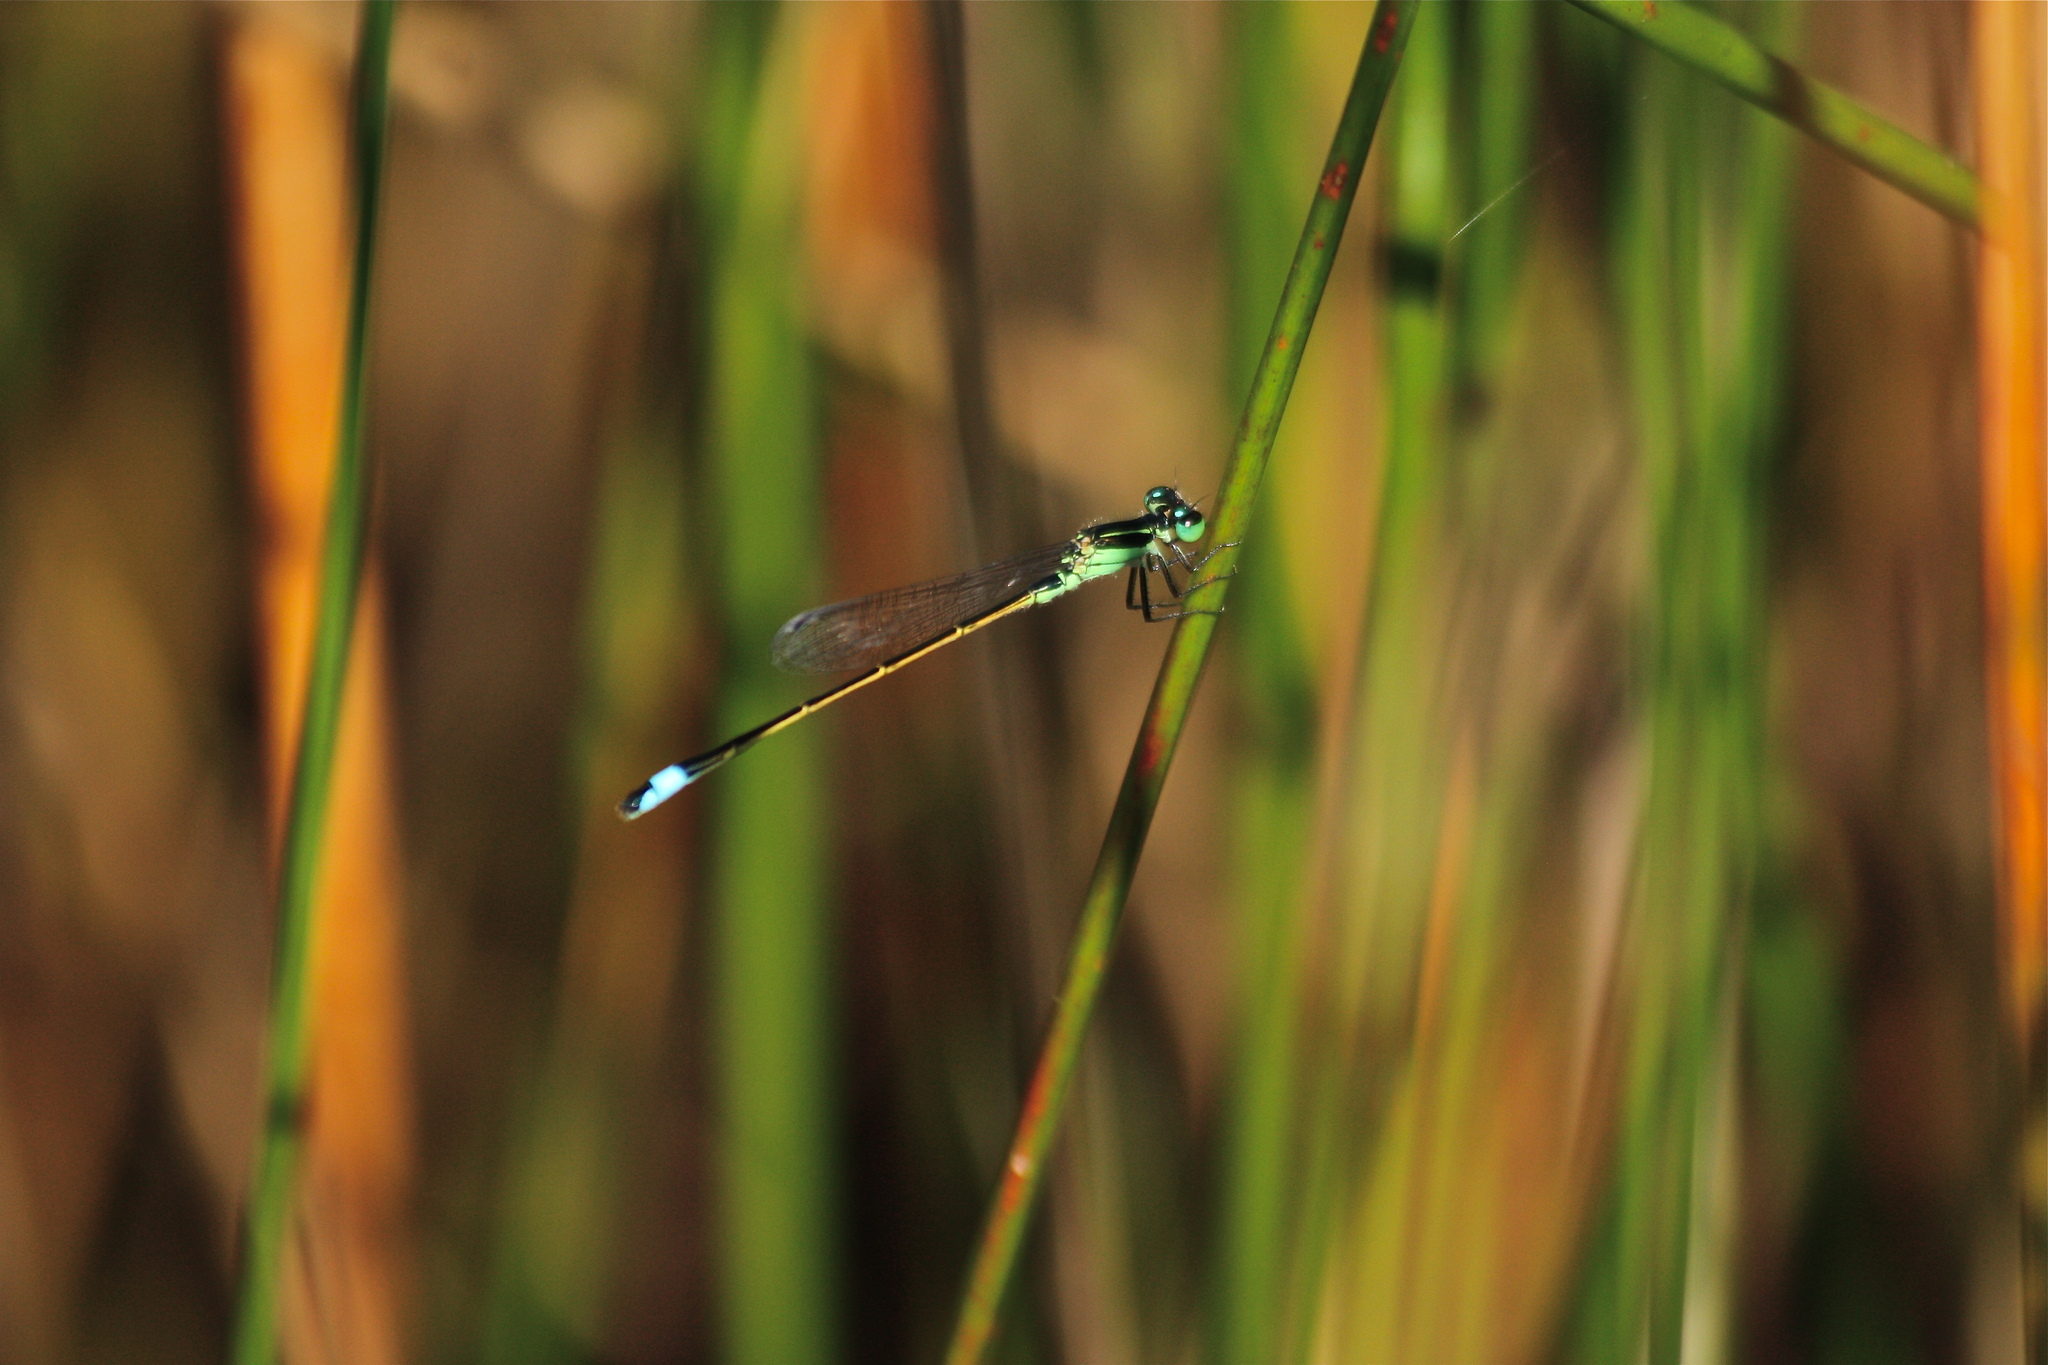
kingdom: Animalia
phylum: Arthropoda
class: Insecta
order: Odonata
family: Coenagrionidae
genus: Ischnura
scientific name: Ischnura ramburii
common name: Rambur's forktail
